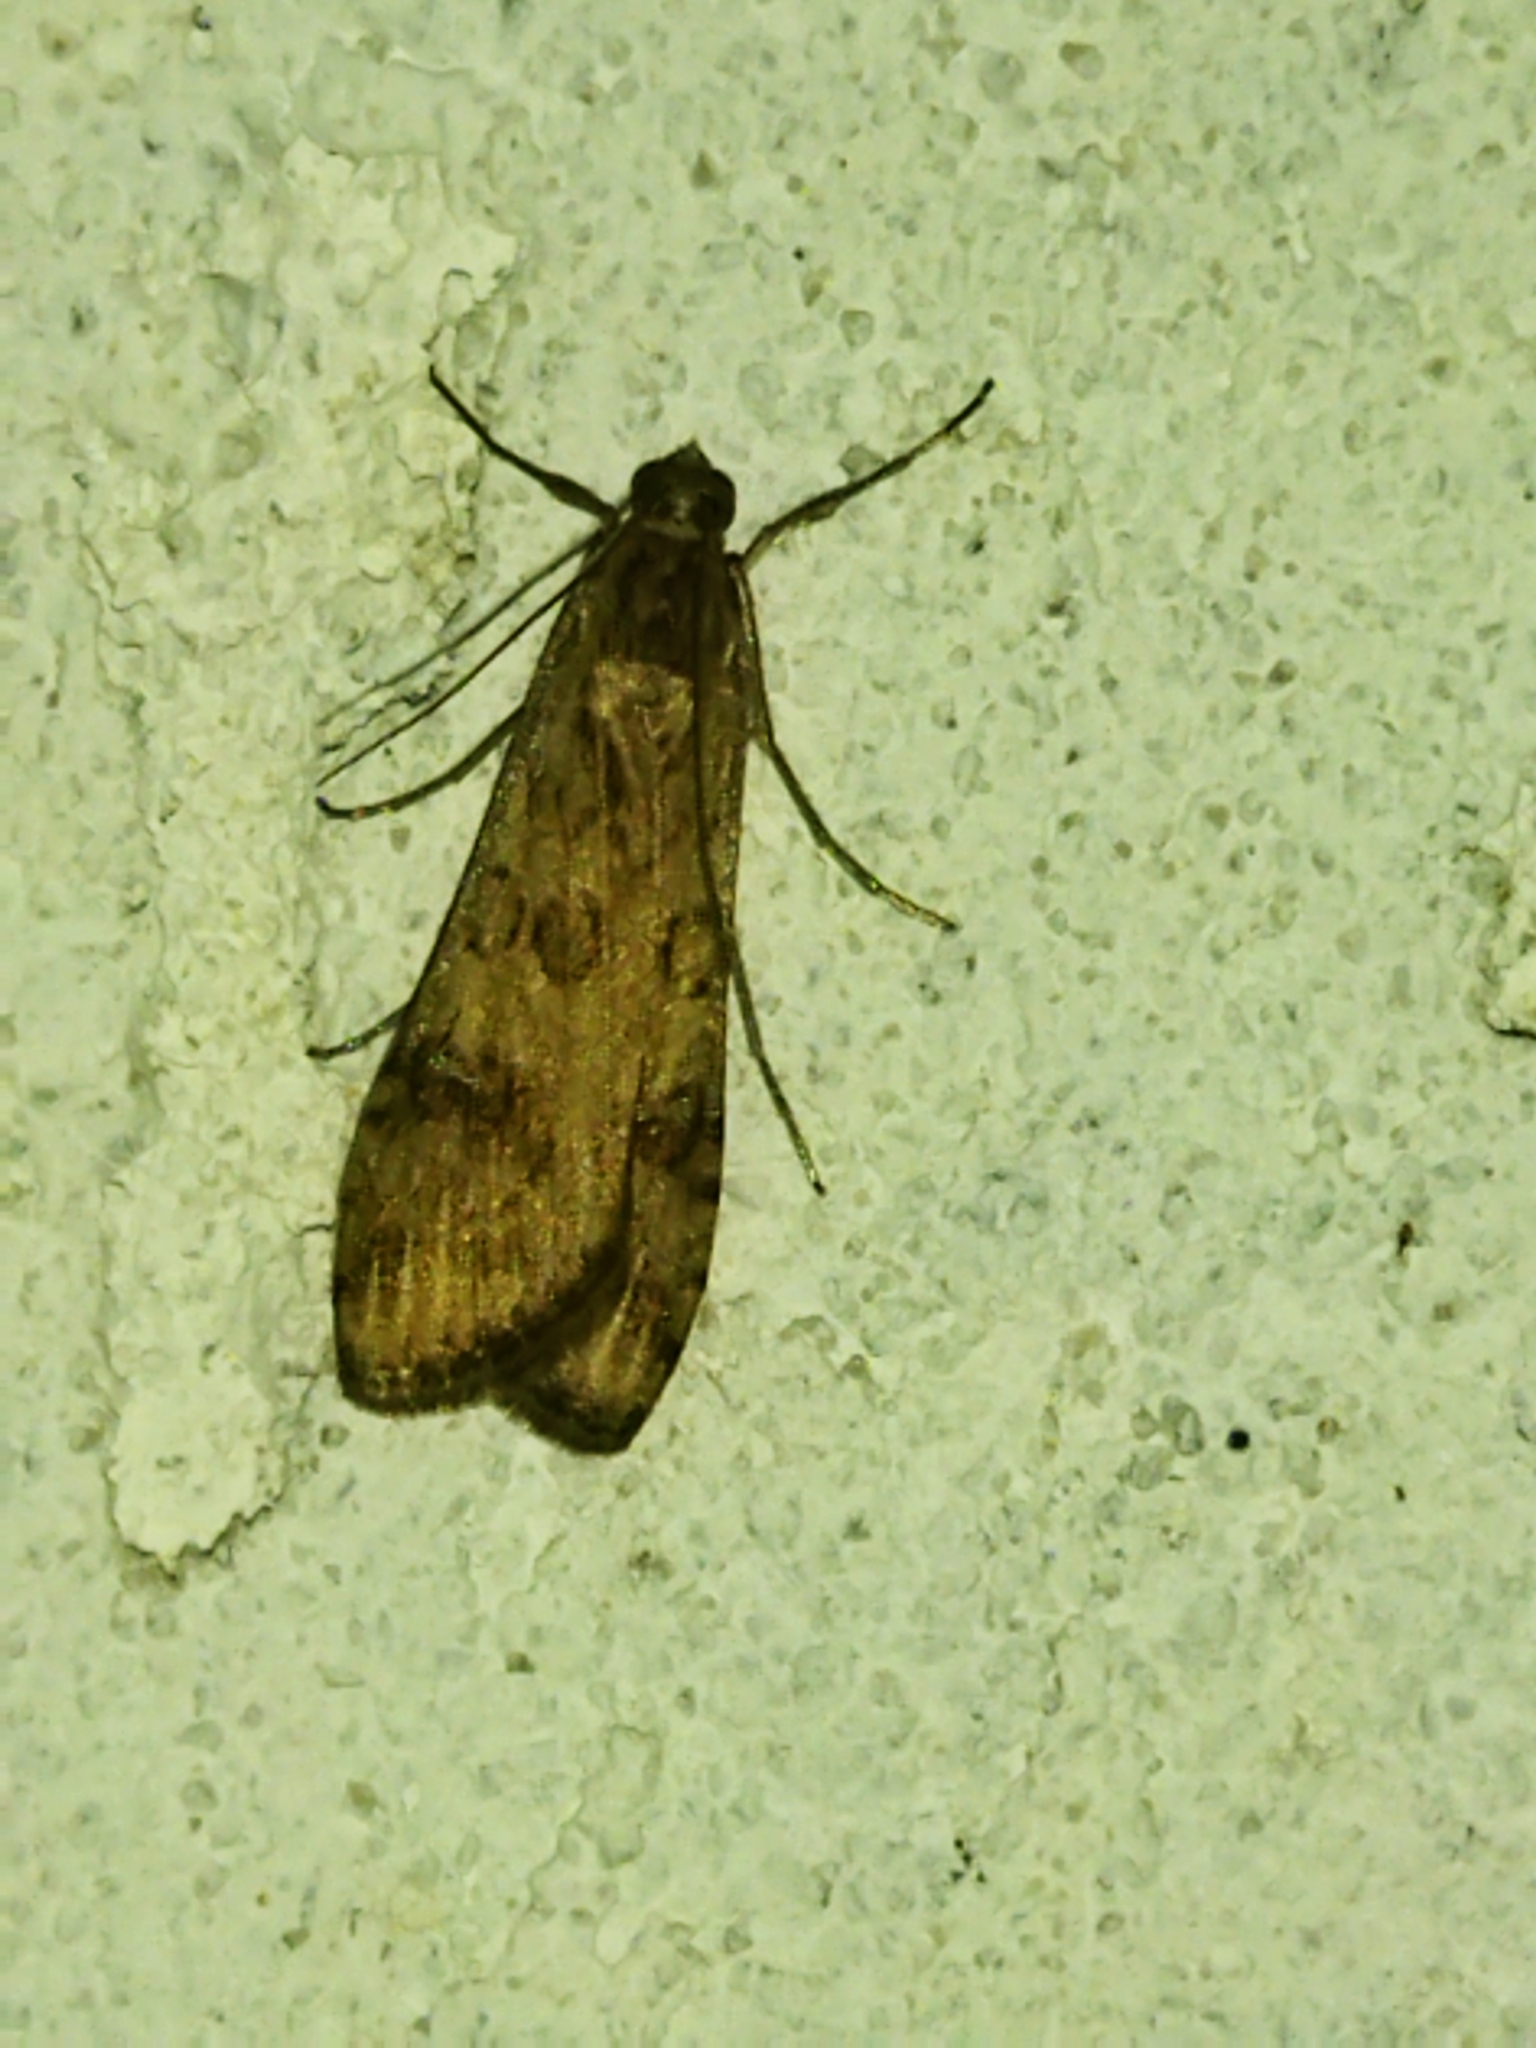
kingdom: Animalia
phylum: Arthropoda
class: Insecta
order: Lepidoptera
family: Crambidae
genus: Nomophila
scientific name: Nomophila noctuella
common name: Rush veneer
